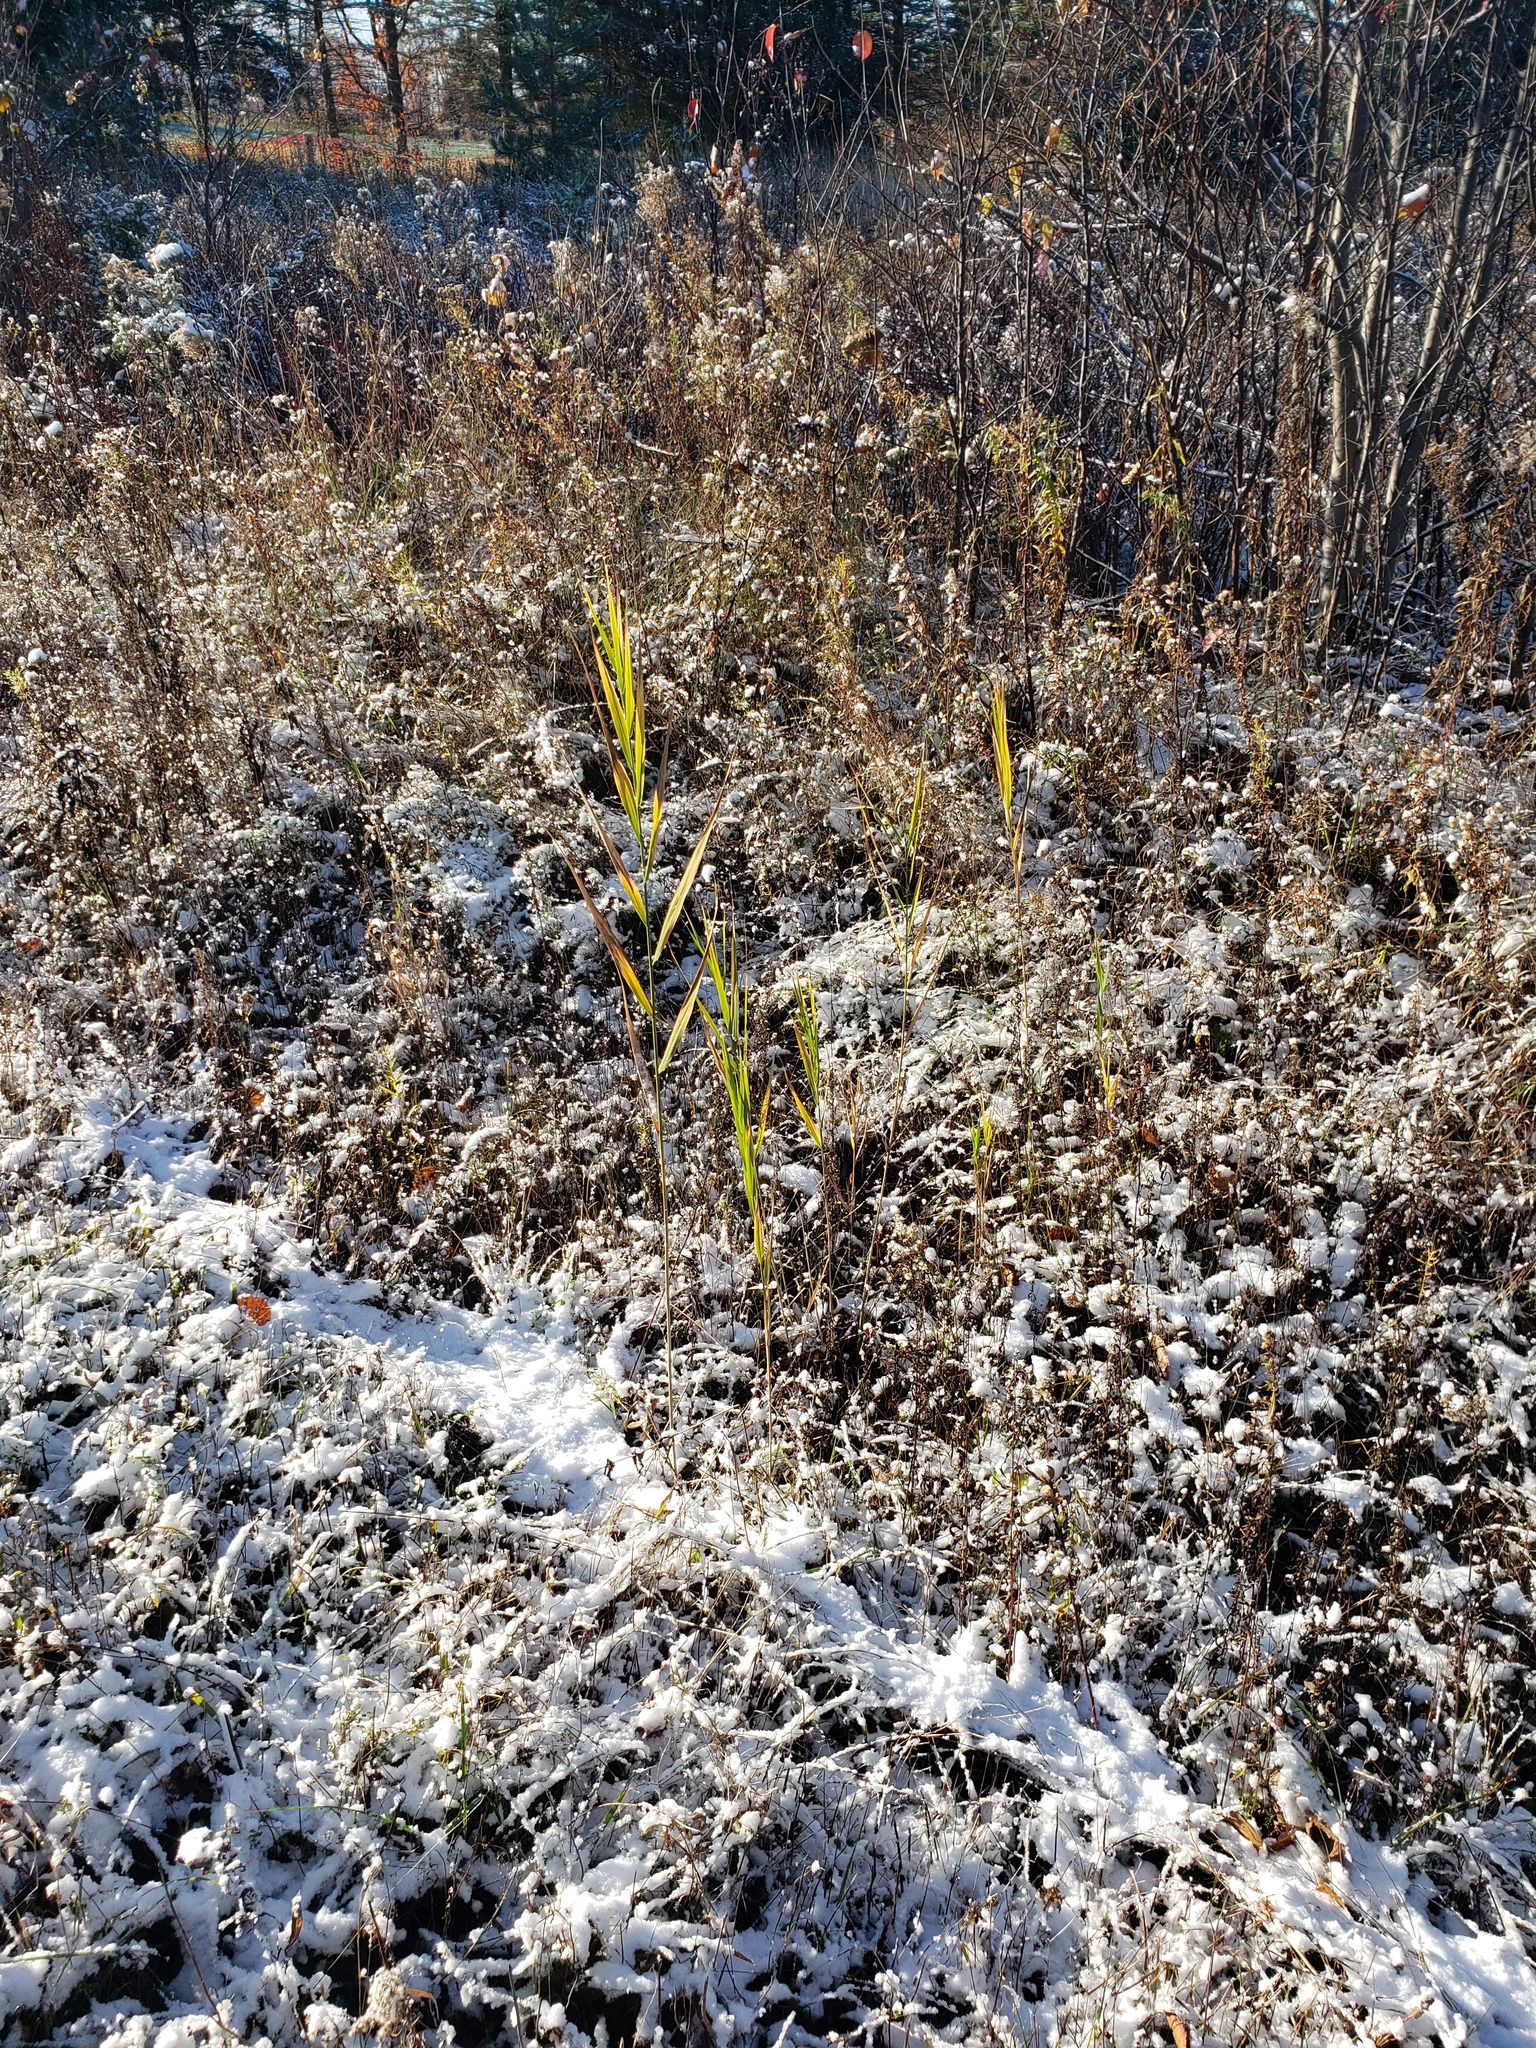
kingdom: Plantae
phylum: Tracheophyta
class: Liliopsida
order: Poales
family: Poaceae
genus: Phragmites
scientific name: Phragmites australis
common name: Common reed
